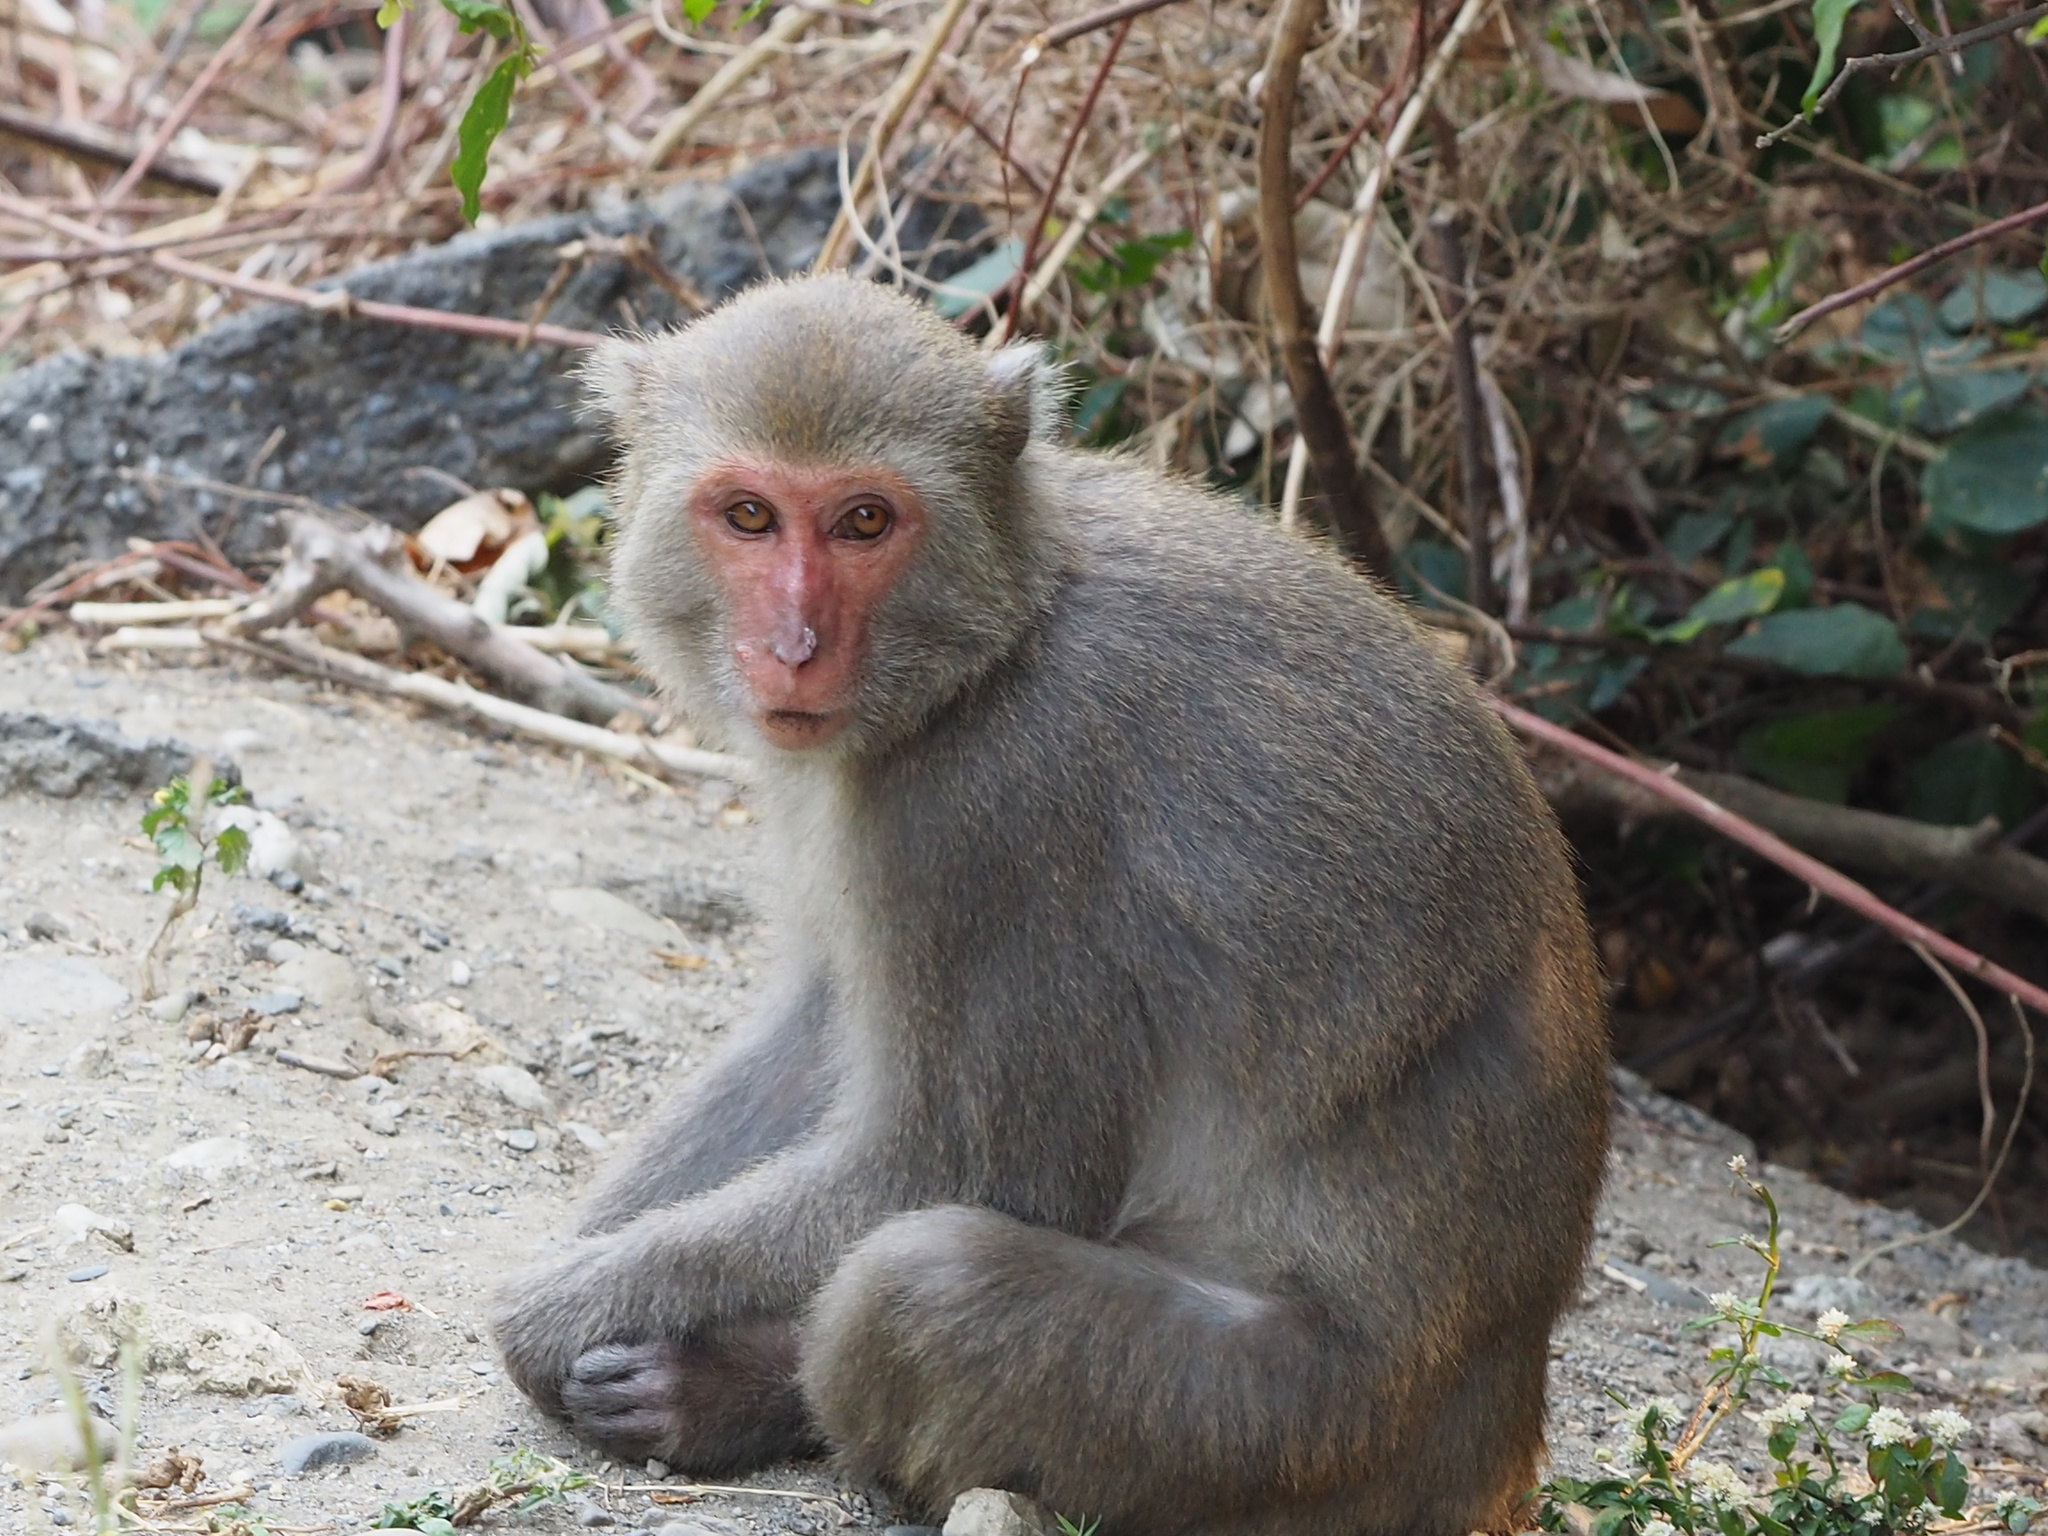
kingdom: Animalia
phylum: Chordata
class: Mammalia
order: Primates
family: Cercopithecidae
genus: Macaca
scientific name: Macaca cyclopis
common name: Formosan rock macaque
